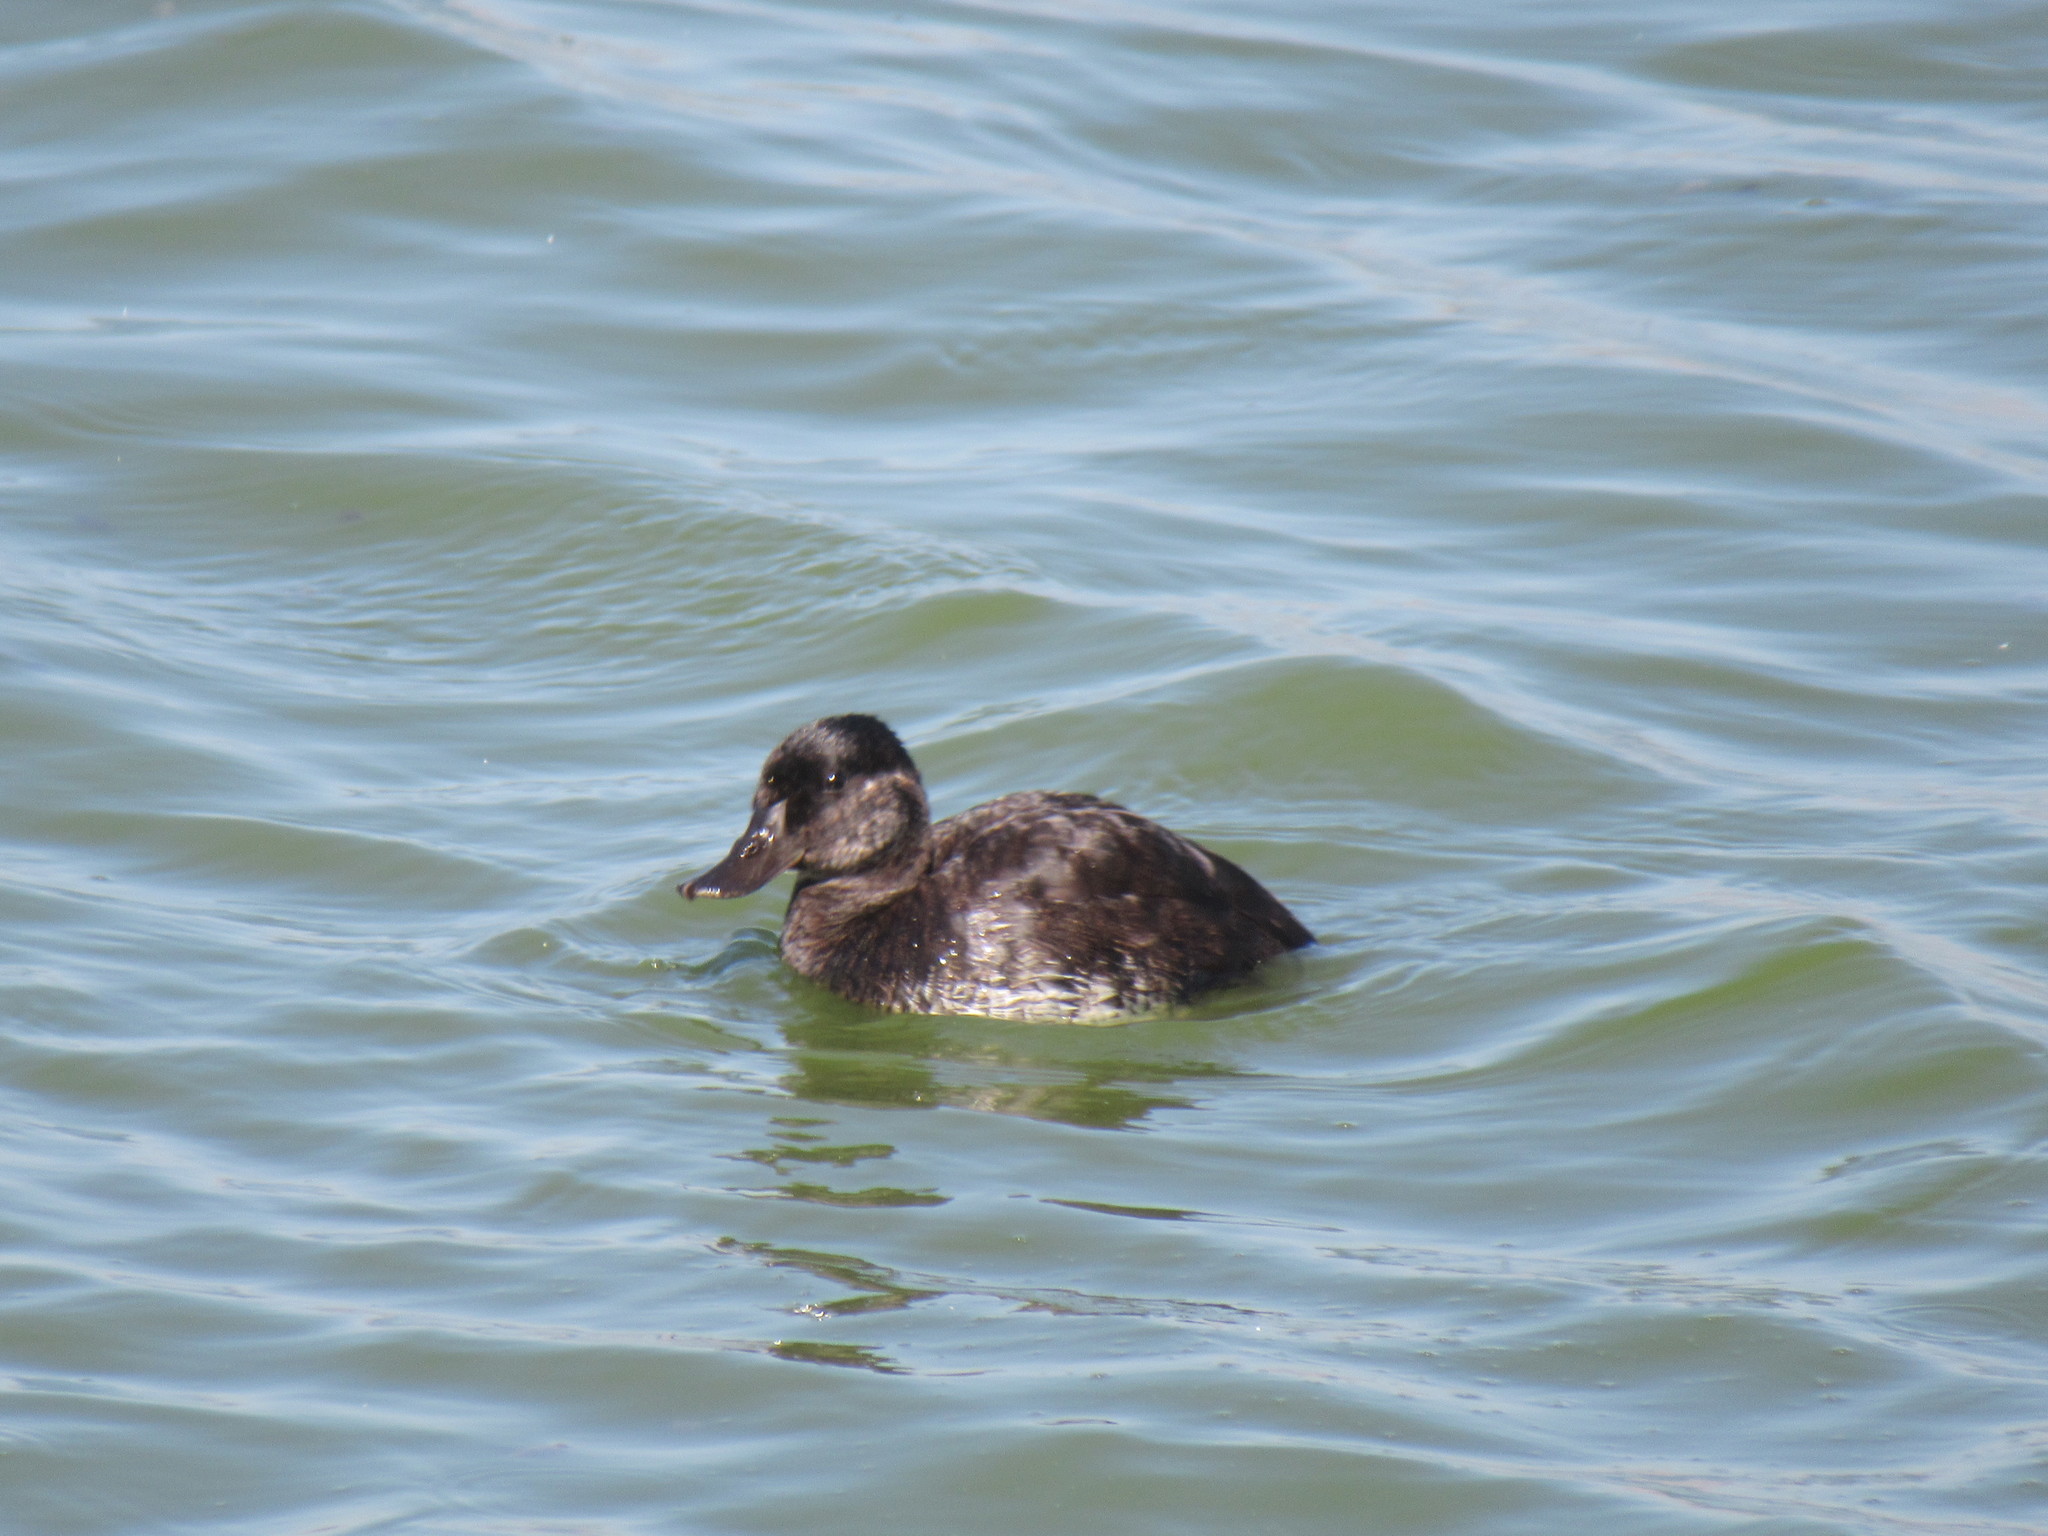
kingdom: Animalia
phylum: Chordata
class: Aves
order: Anseriformes
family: Anatidae
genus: Oxyura
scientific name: Oxyura jamaicensis
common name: Ruddy duck
